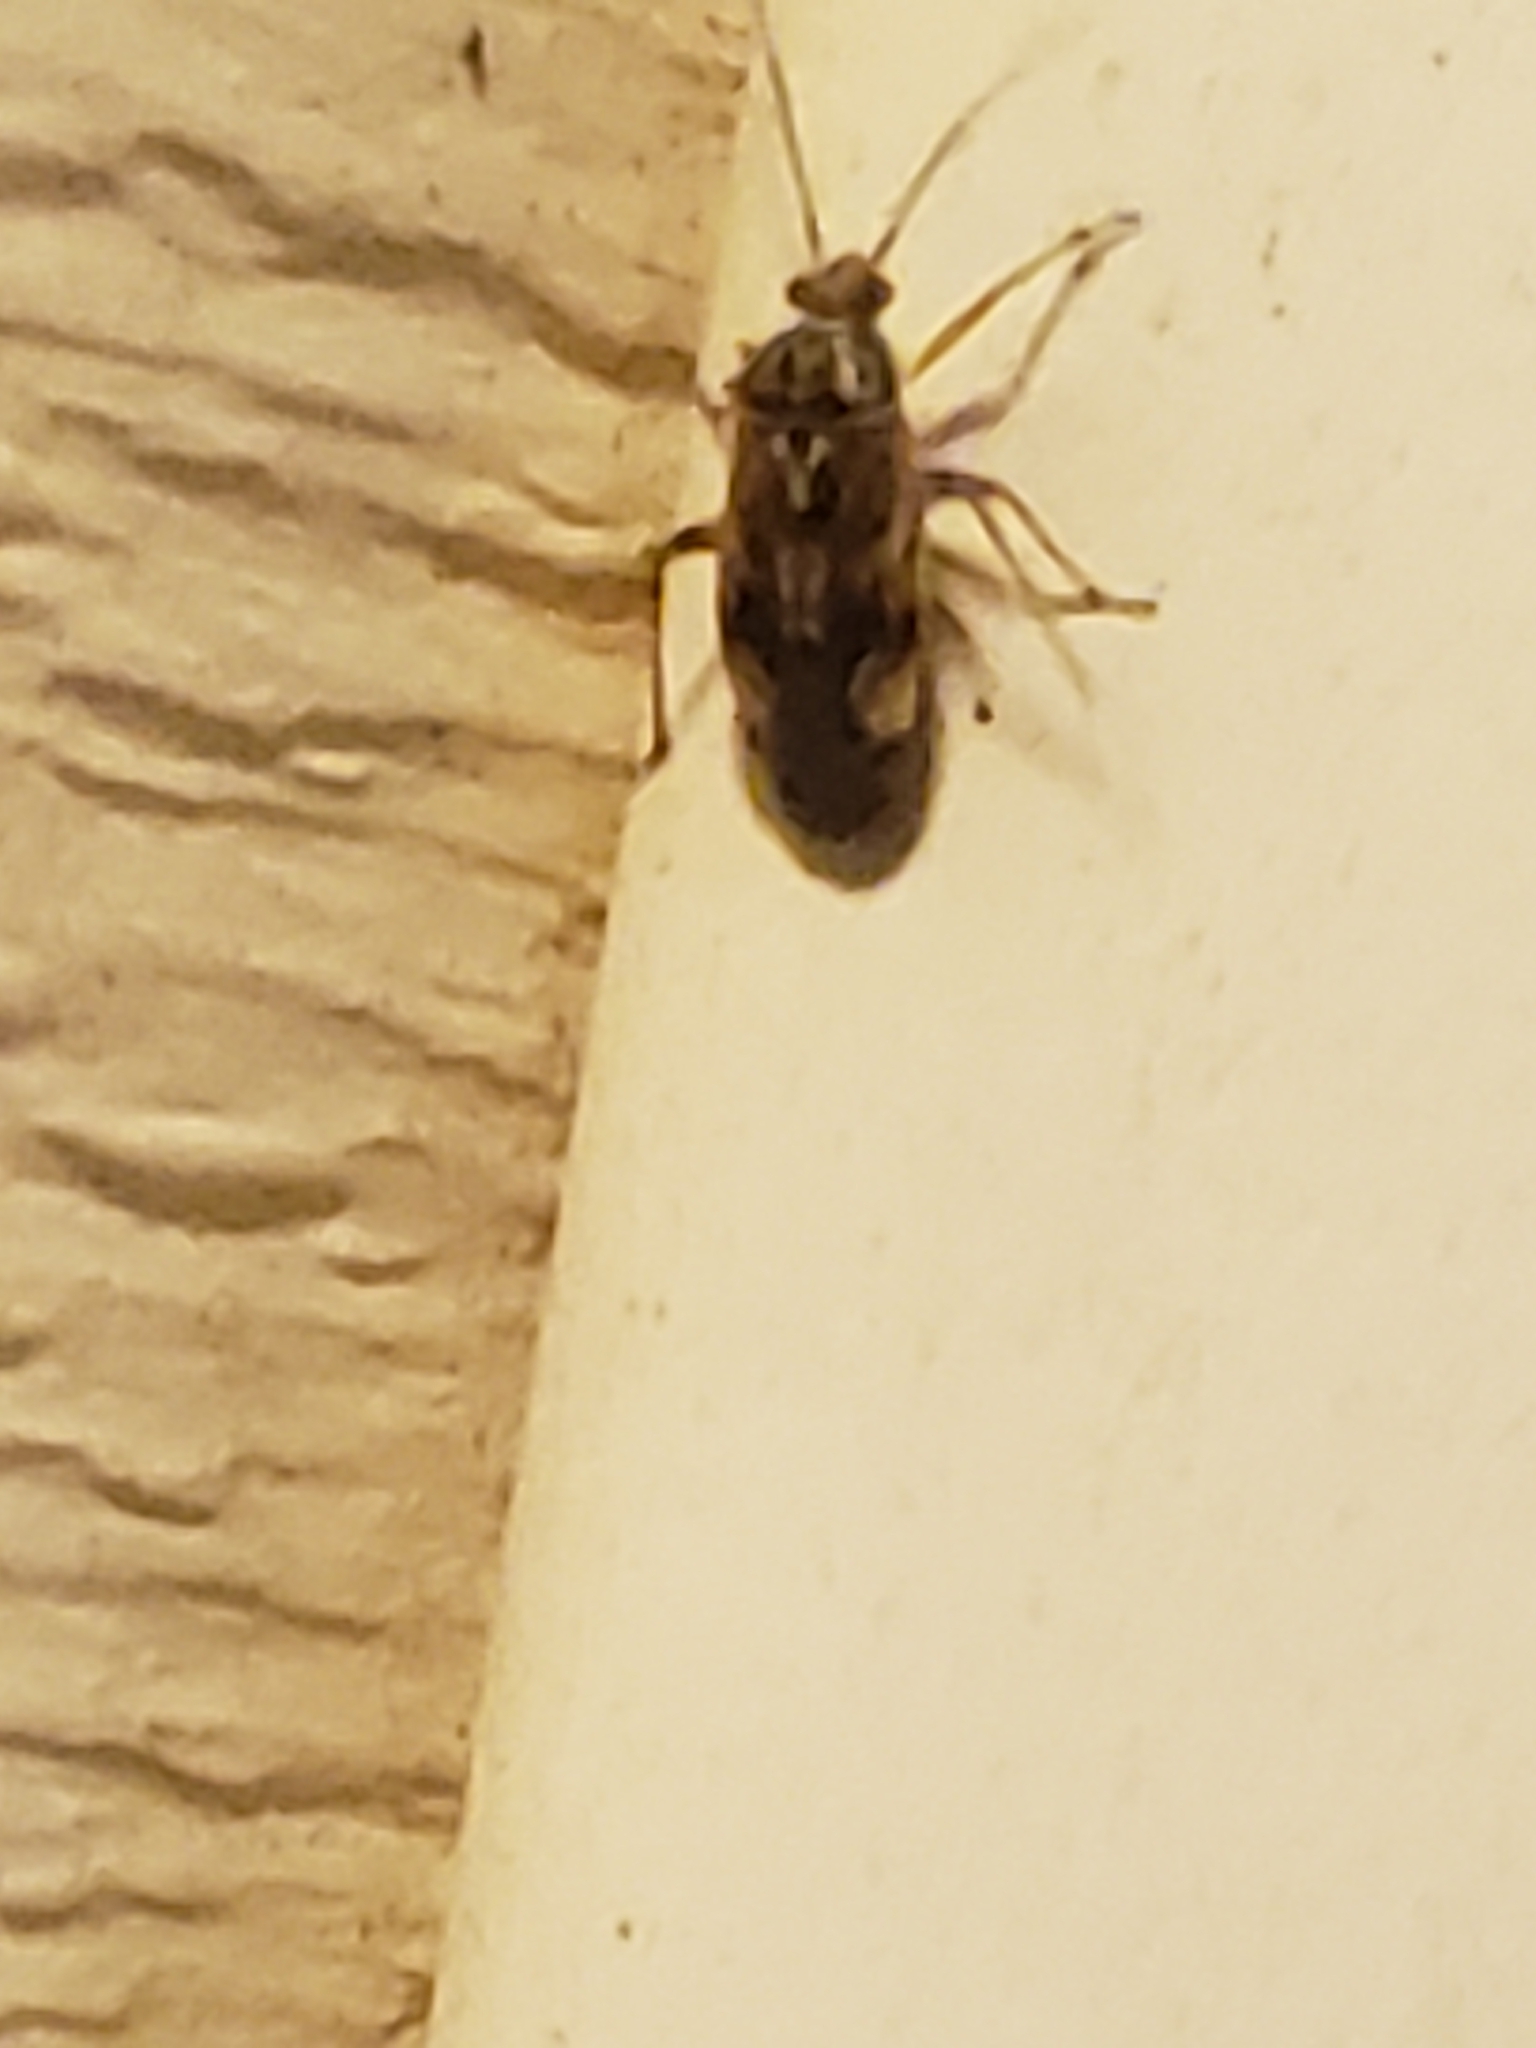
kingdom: Animalia
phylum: Arthropoda
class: Insecta
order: Hemiptera
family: Miridae
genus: Lygus
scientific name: Lygus lineolaris
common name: North american tarnished plant bug
